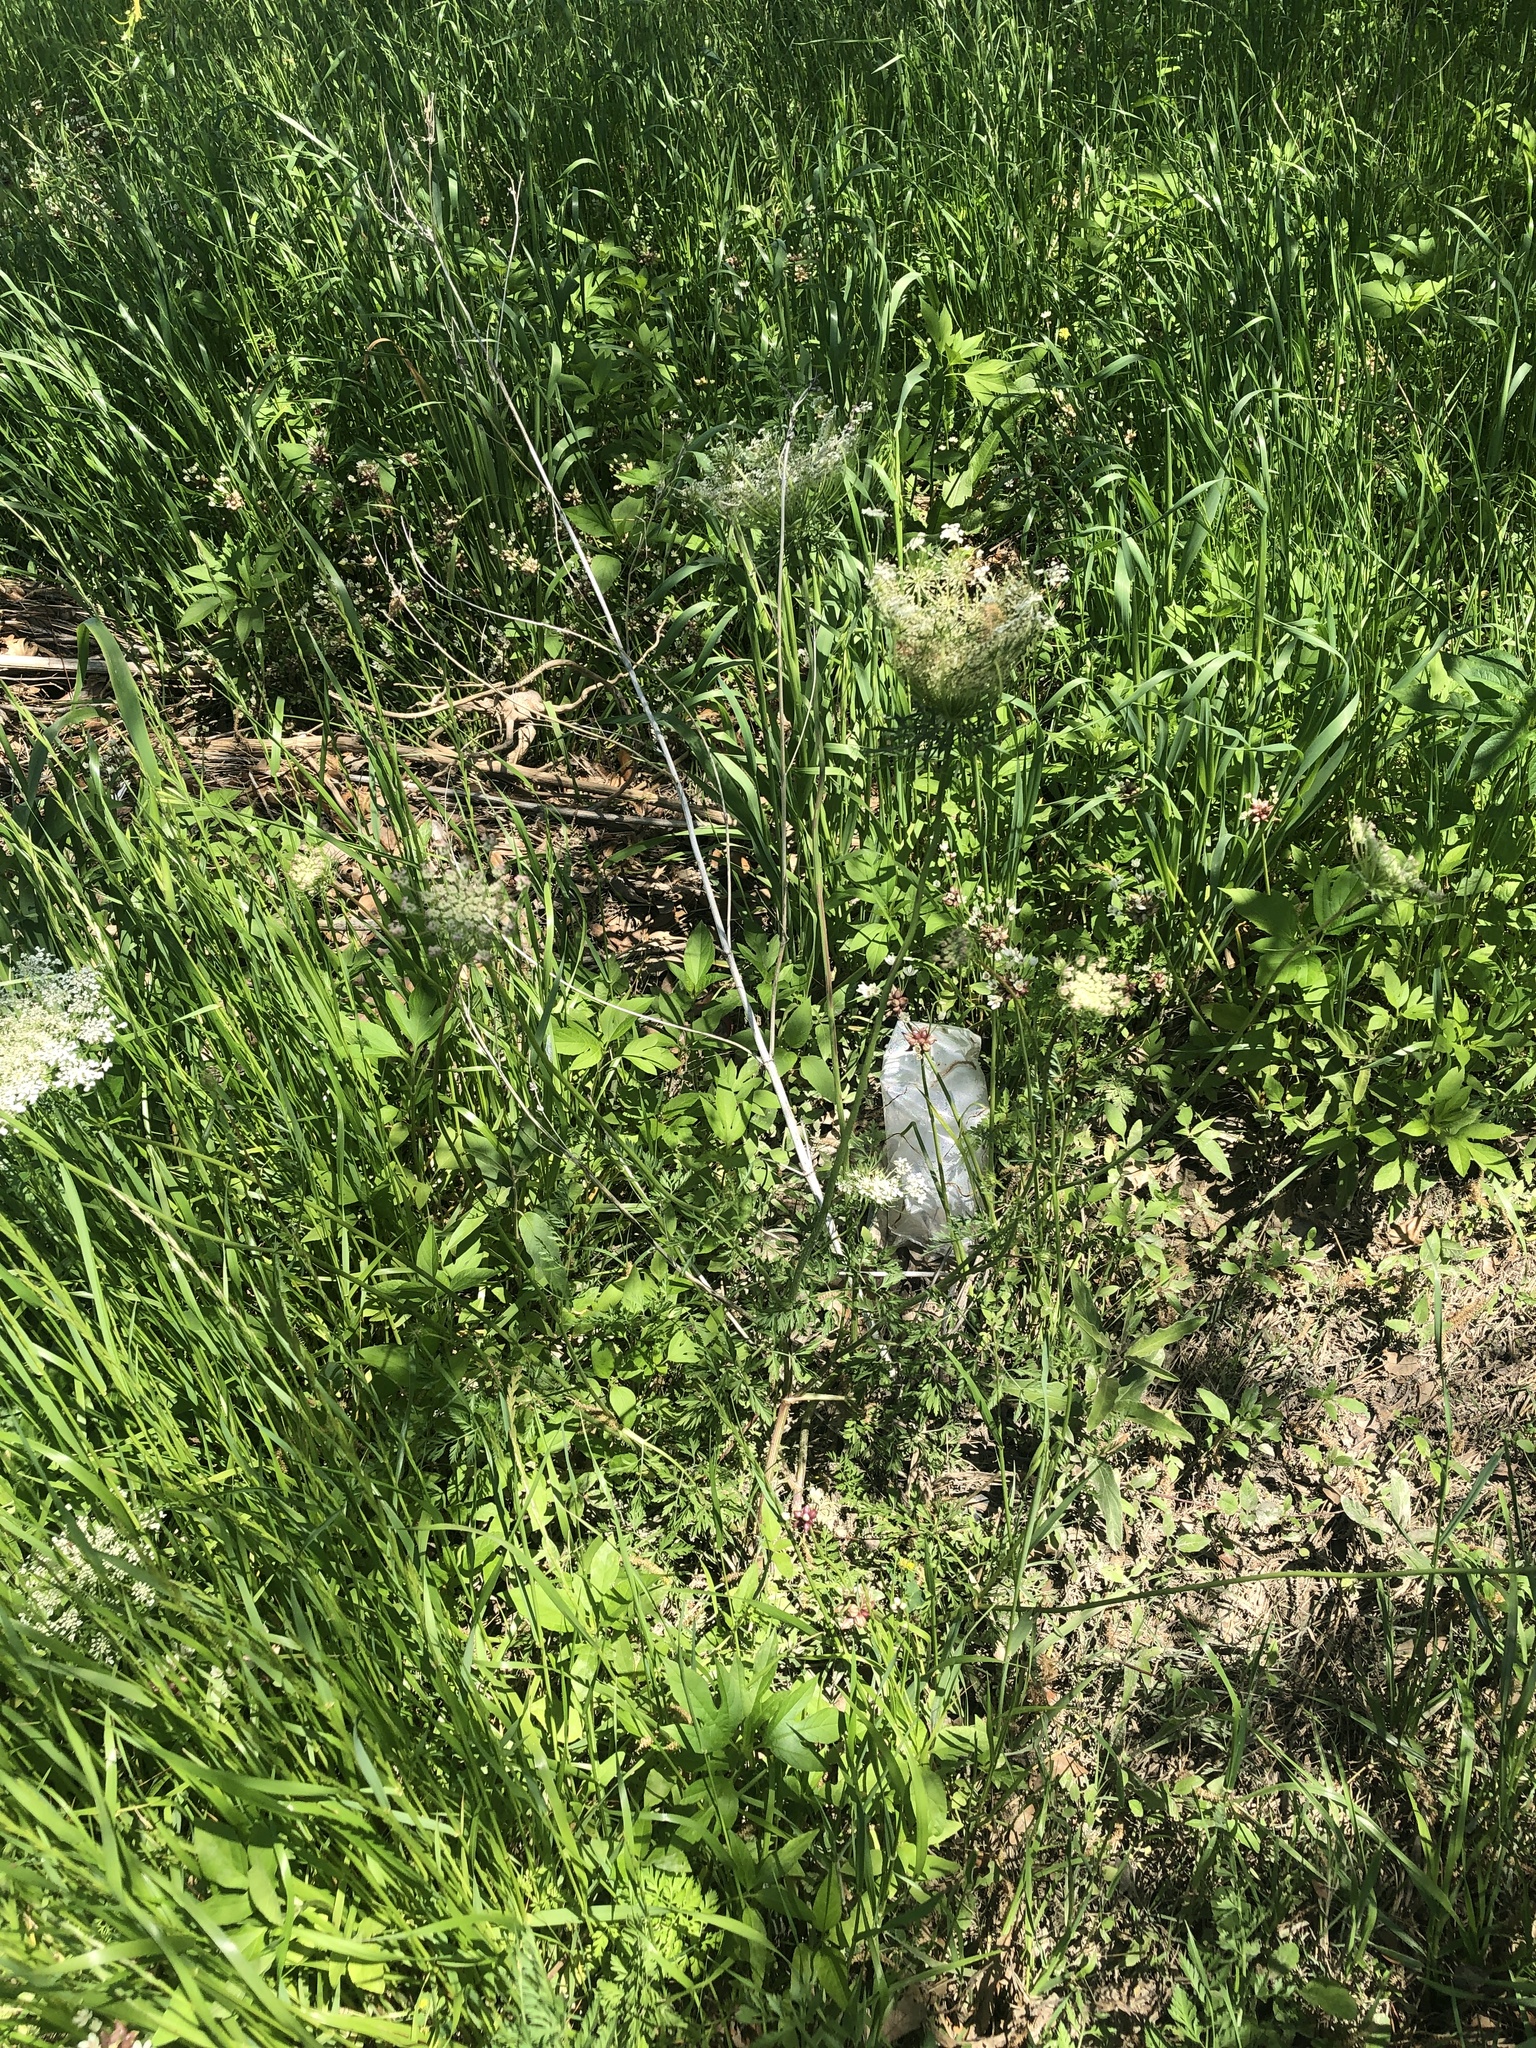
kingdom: Plantae
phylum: Tracheophyta
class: Magnoliopsida
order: Apiales
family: Apiaceae
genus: Daucus
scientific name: Daucus carota
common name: Wild carrot
